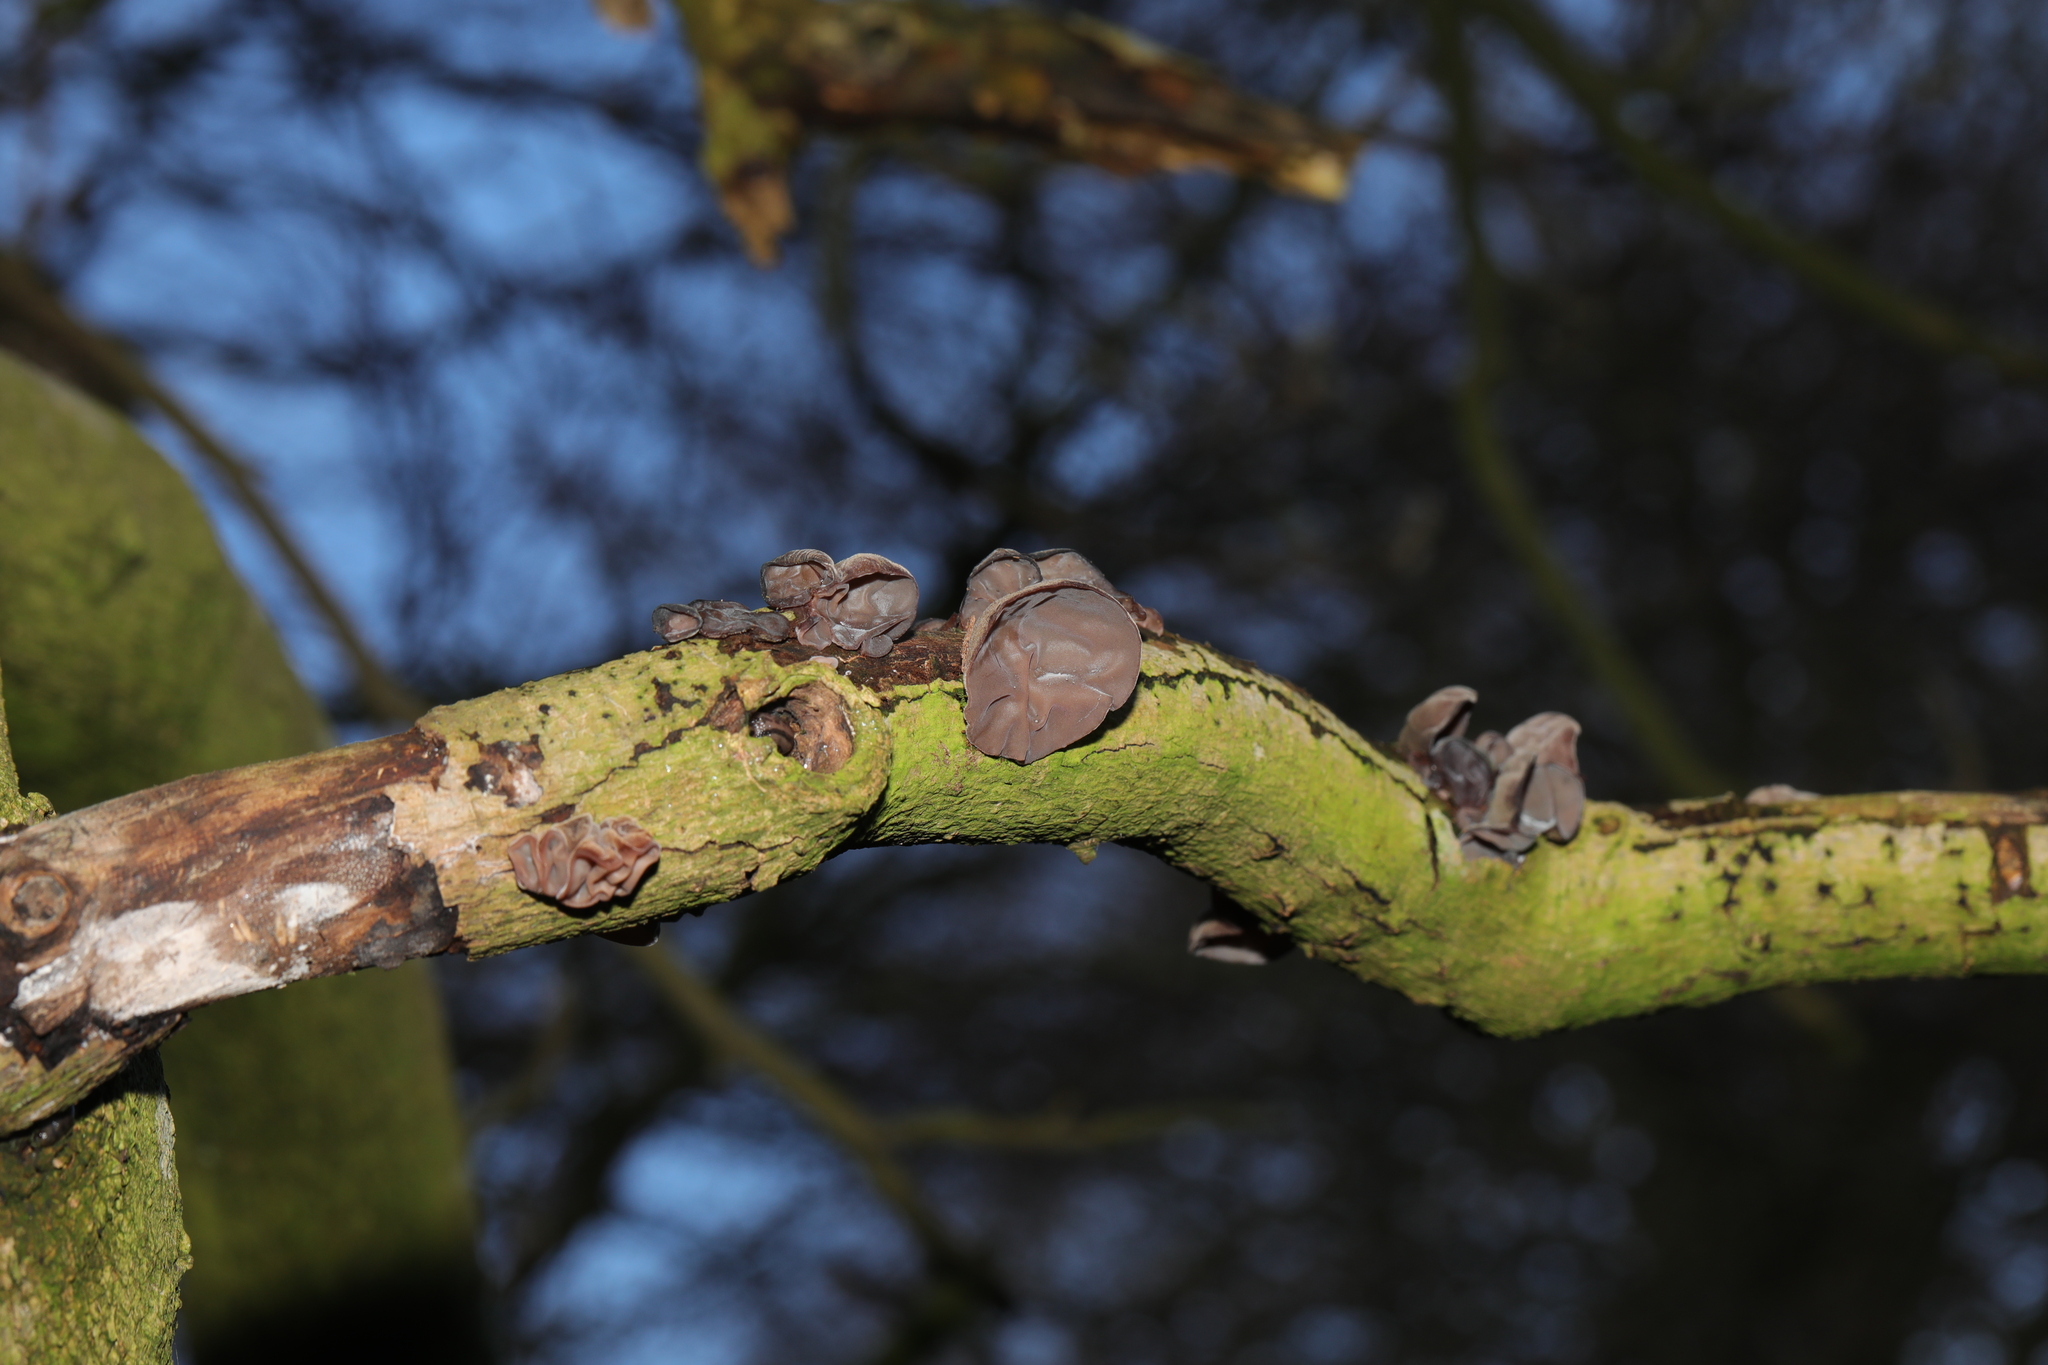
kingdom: Fungi
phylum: Basidiomycota
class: Agaricomycetes
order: Auriculariales
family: Auriculariaceae
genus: Auricularia
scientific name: Auricularia auricula-judae
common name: Jelly ear
